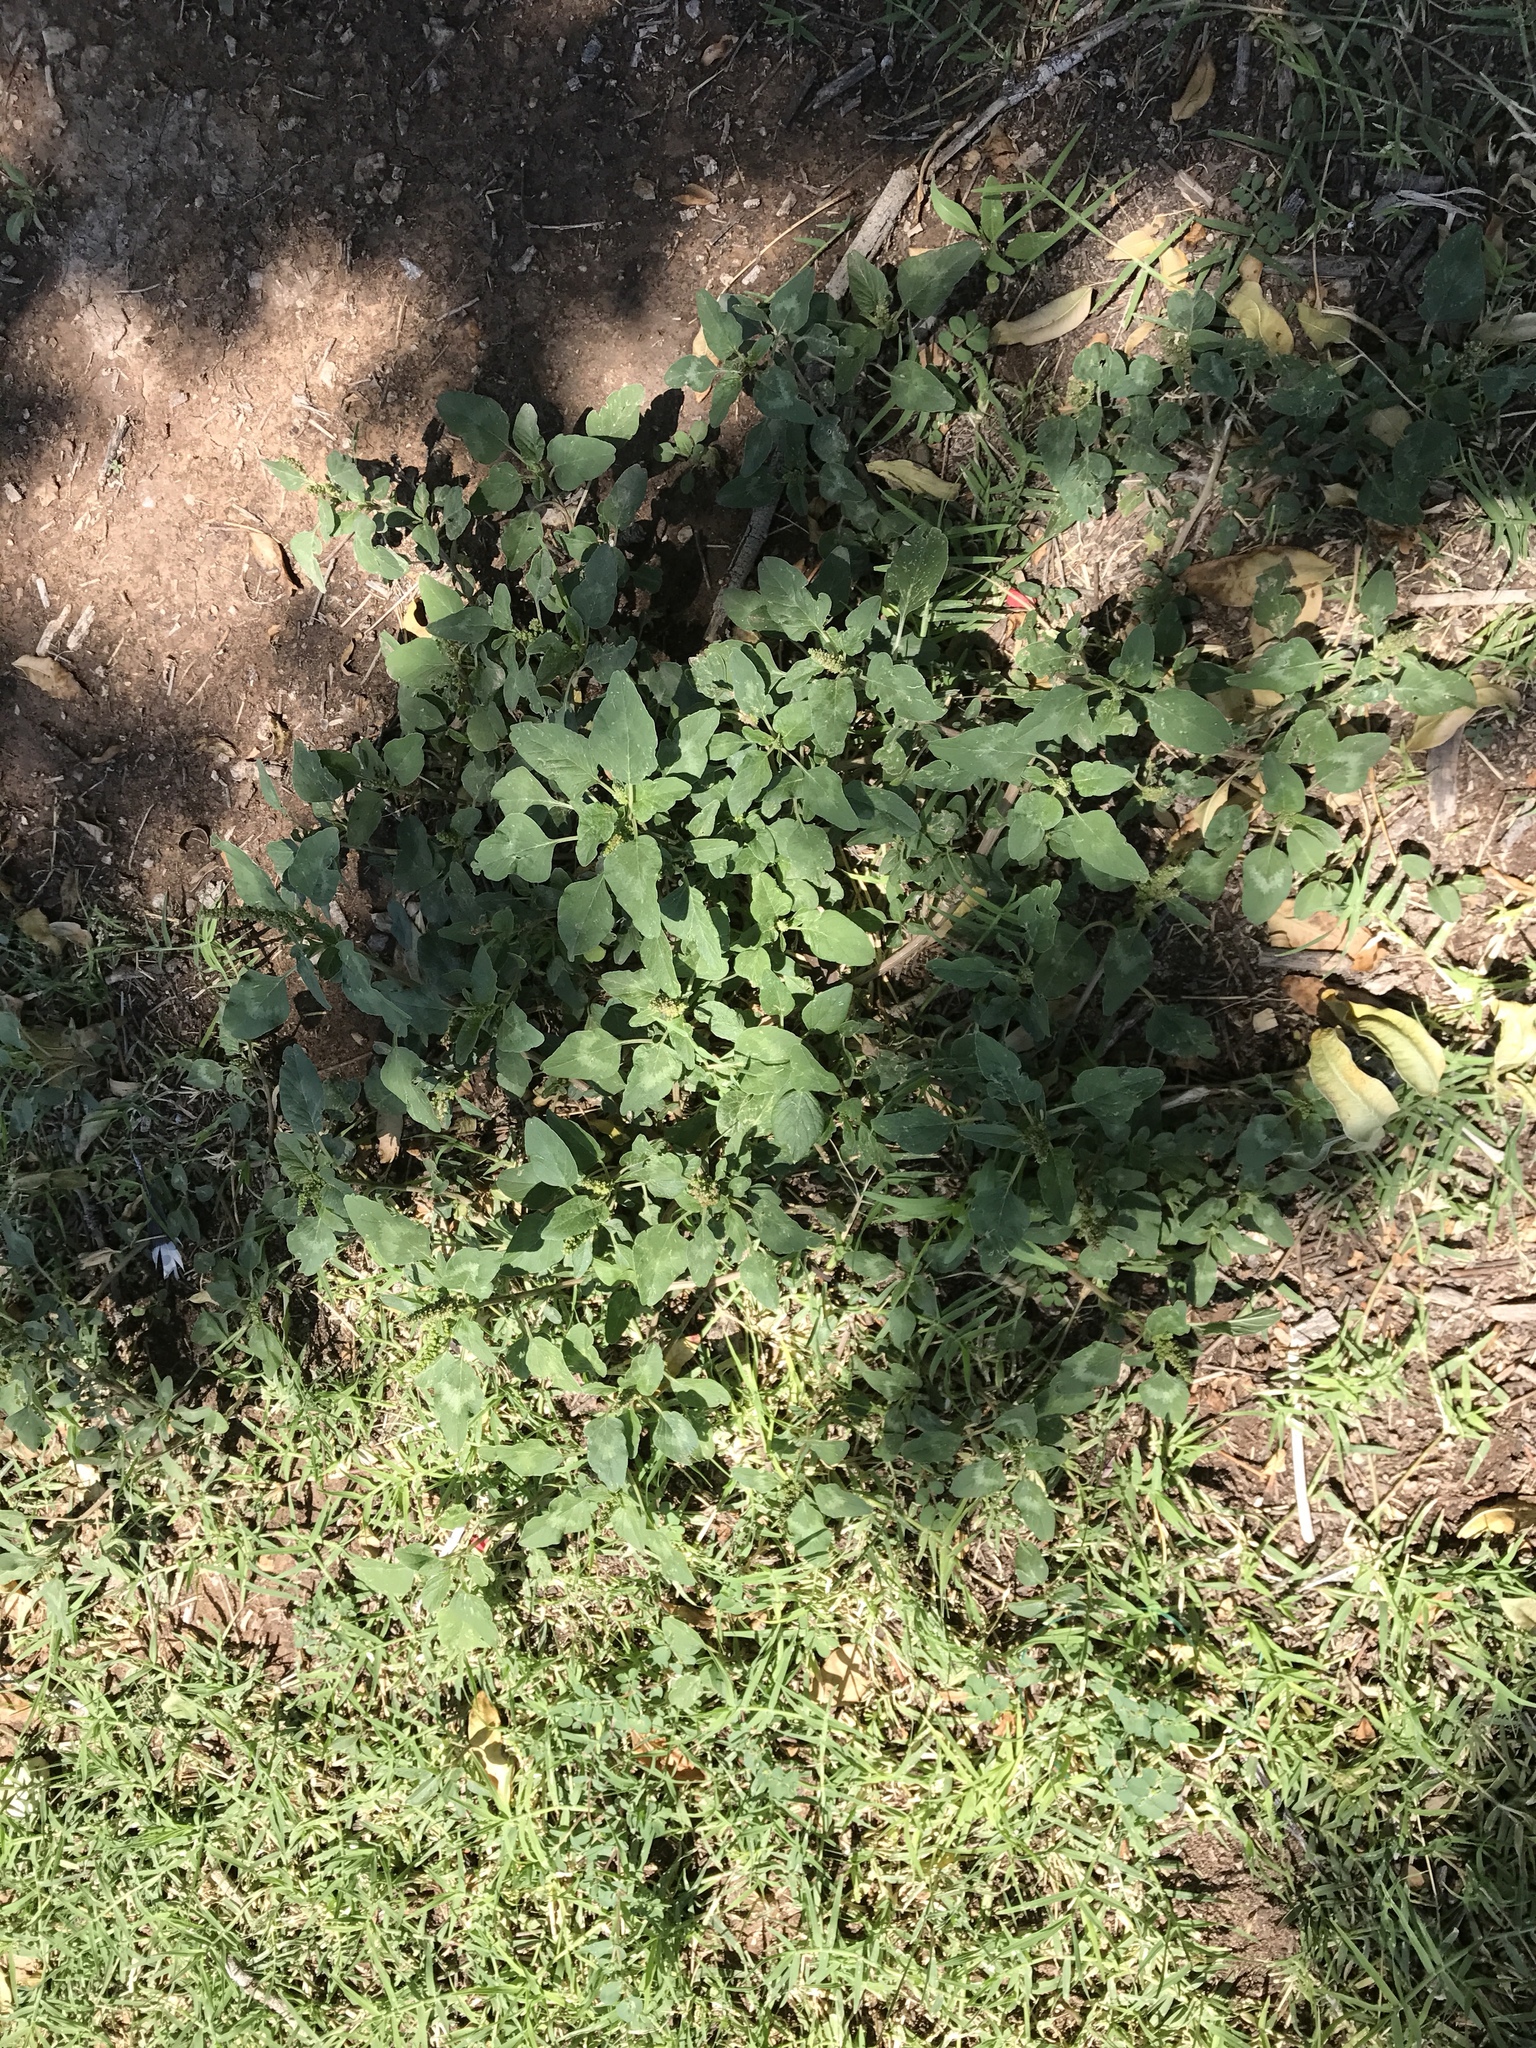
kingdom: Plantae
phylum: Tracheophyta
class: Magnoliopsida
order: Caryophyllales
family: Amaranthaceae
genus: Amaranthus
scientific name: Amaranthus palmeri
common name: Dioecious amaranth
